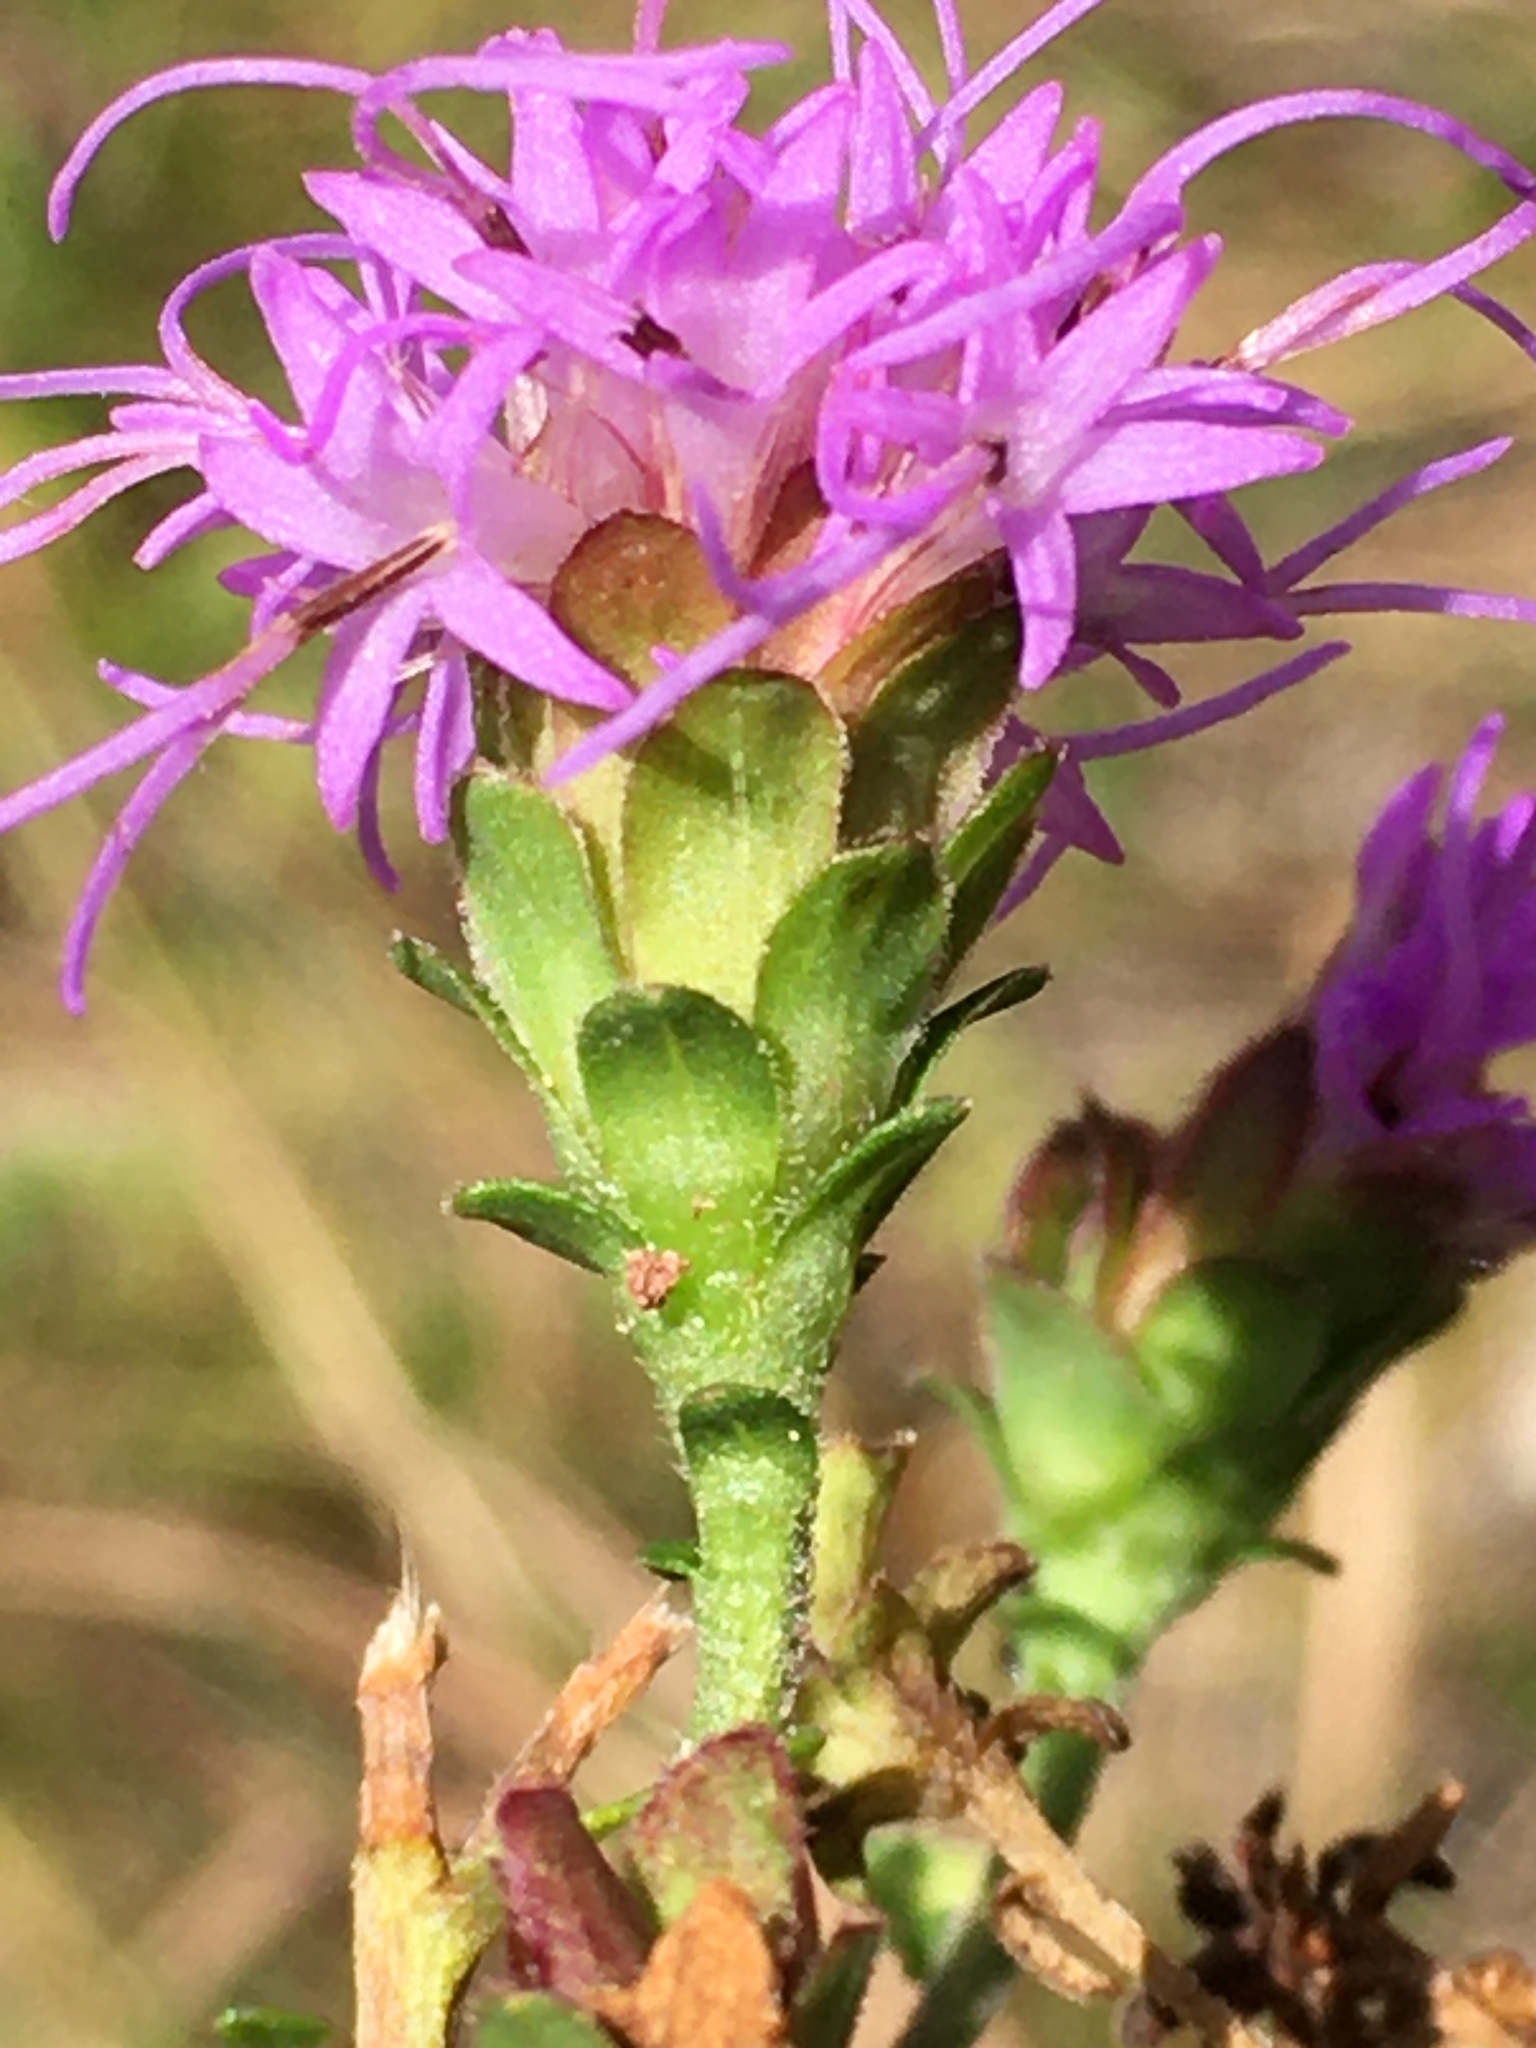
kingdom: Plantae
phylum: Tracheophyta
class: Magnoliopsida
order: Asterales
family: Asteraceae
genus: Carphephorus
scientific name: Carphephorus bellidifolius
